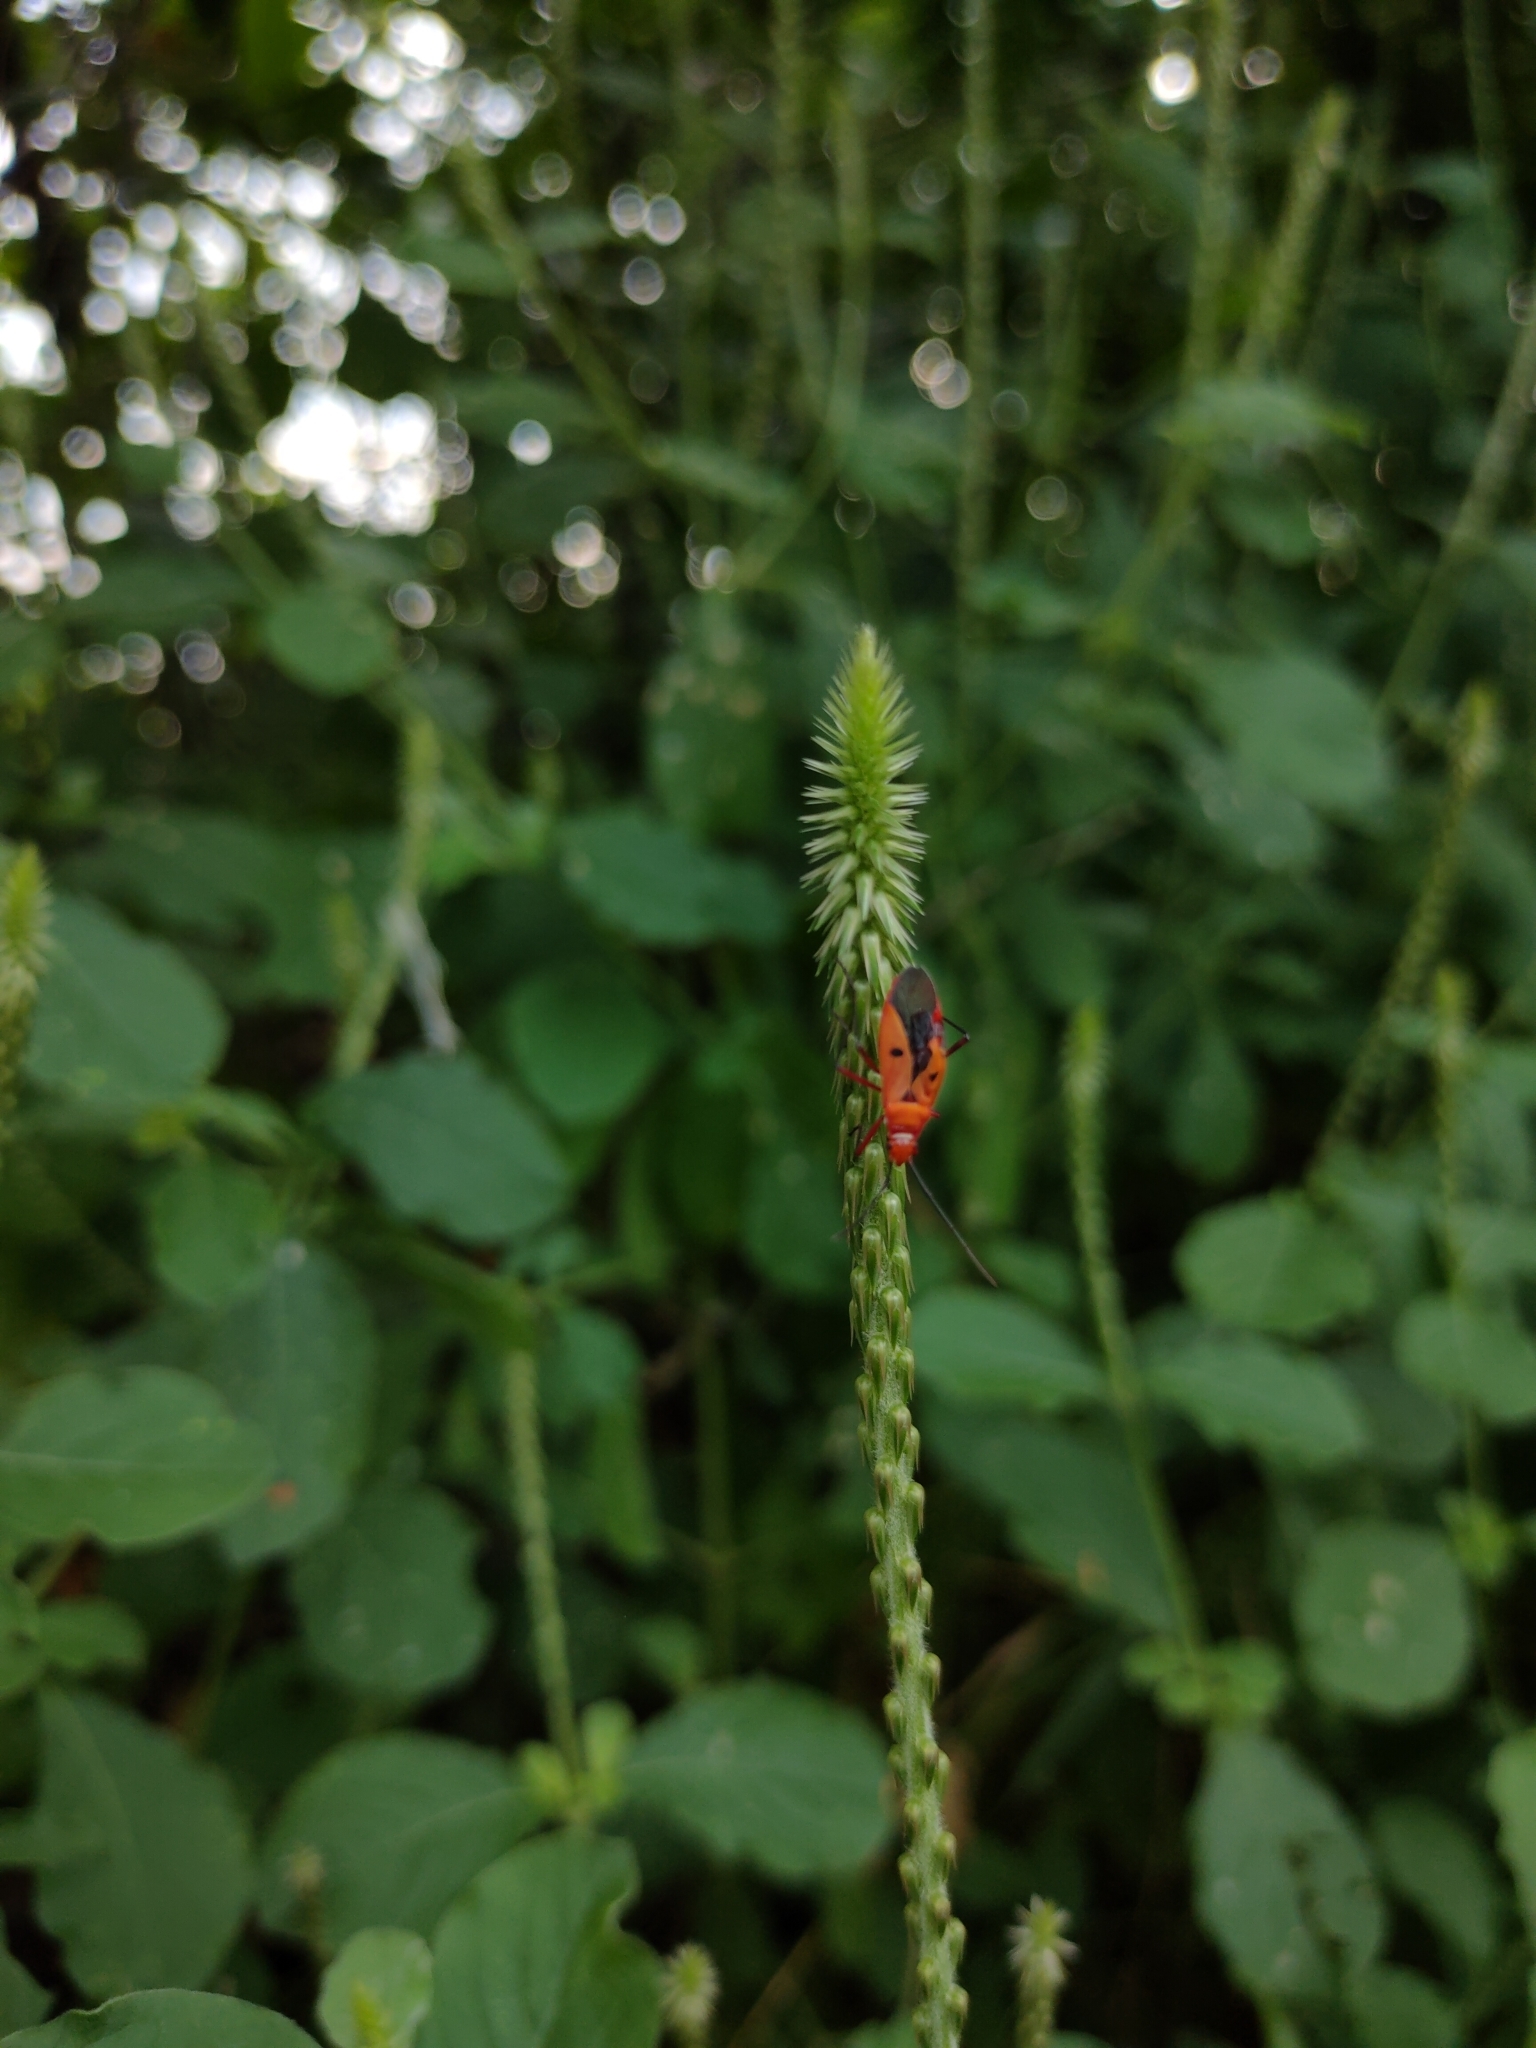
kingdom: Animalia
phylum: Arthropoda
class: Insecta
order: Hemiptera
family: Pyrrhocoridae
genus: Dysdercus
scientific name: Dysdercus cingulatus
